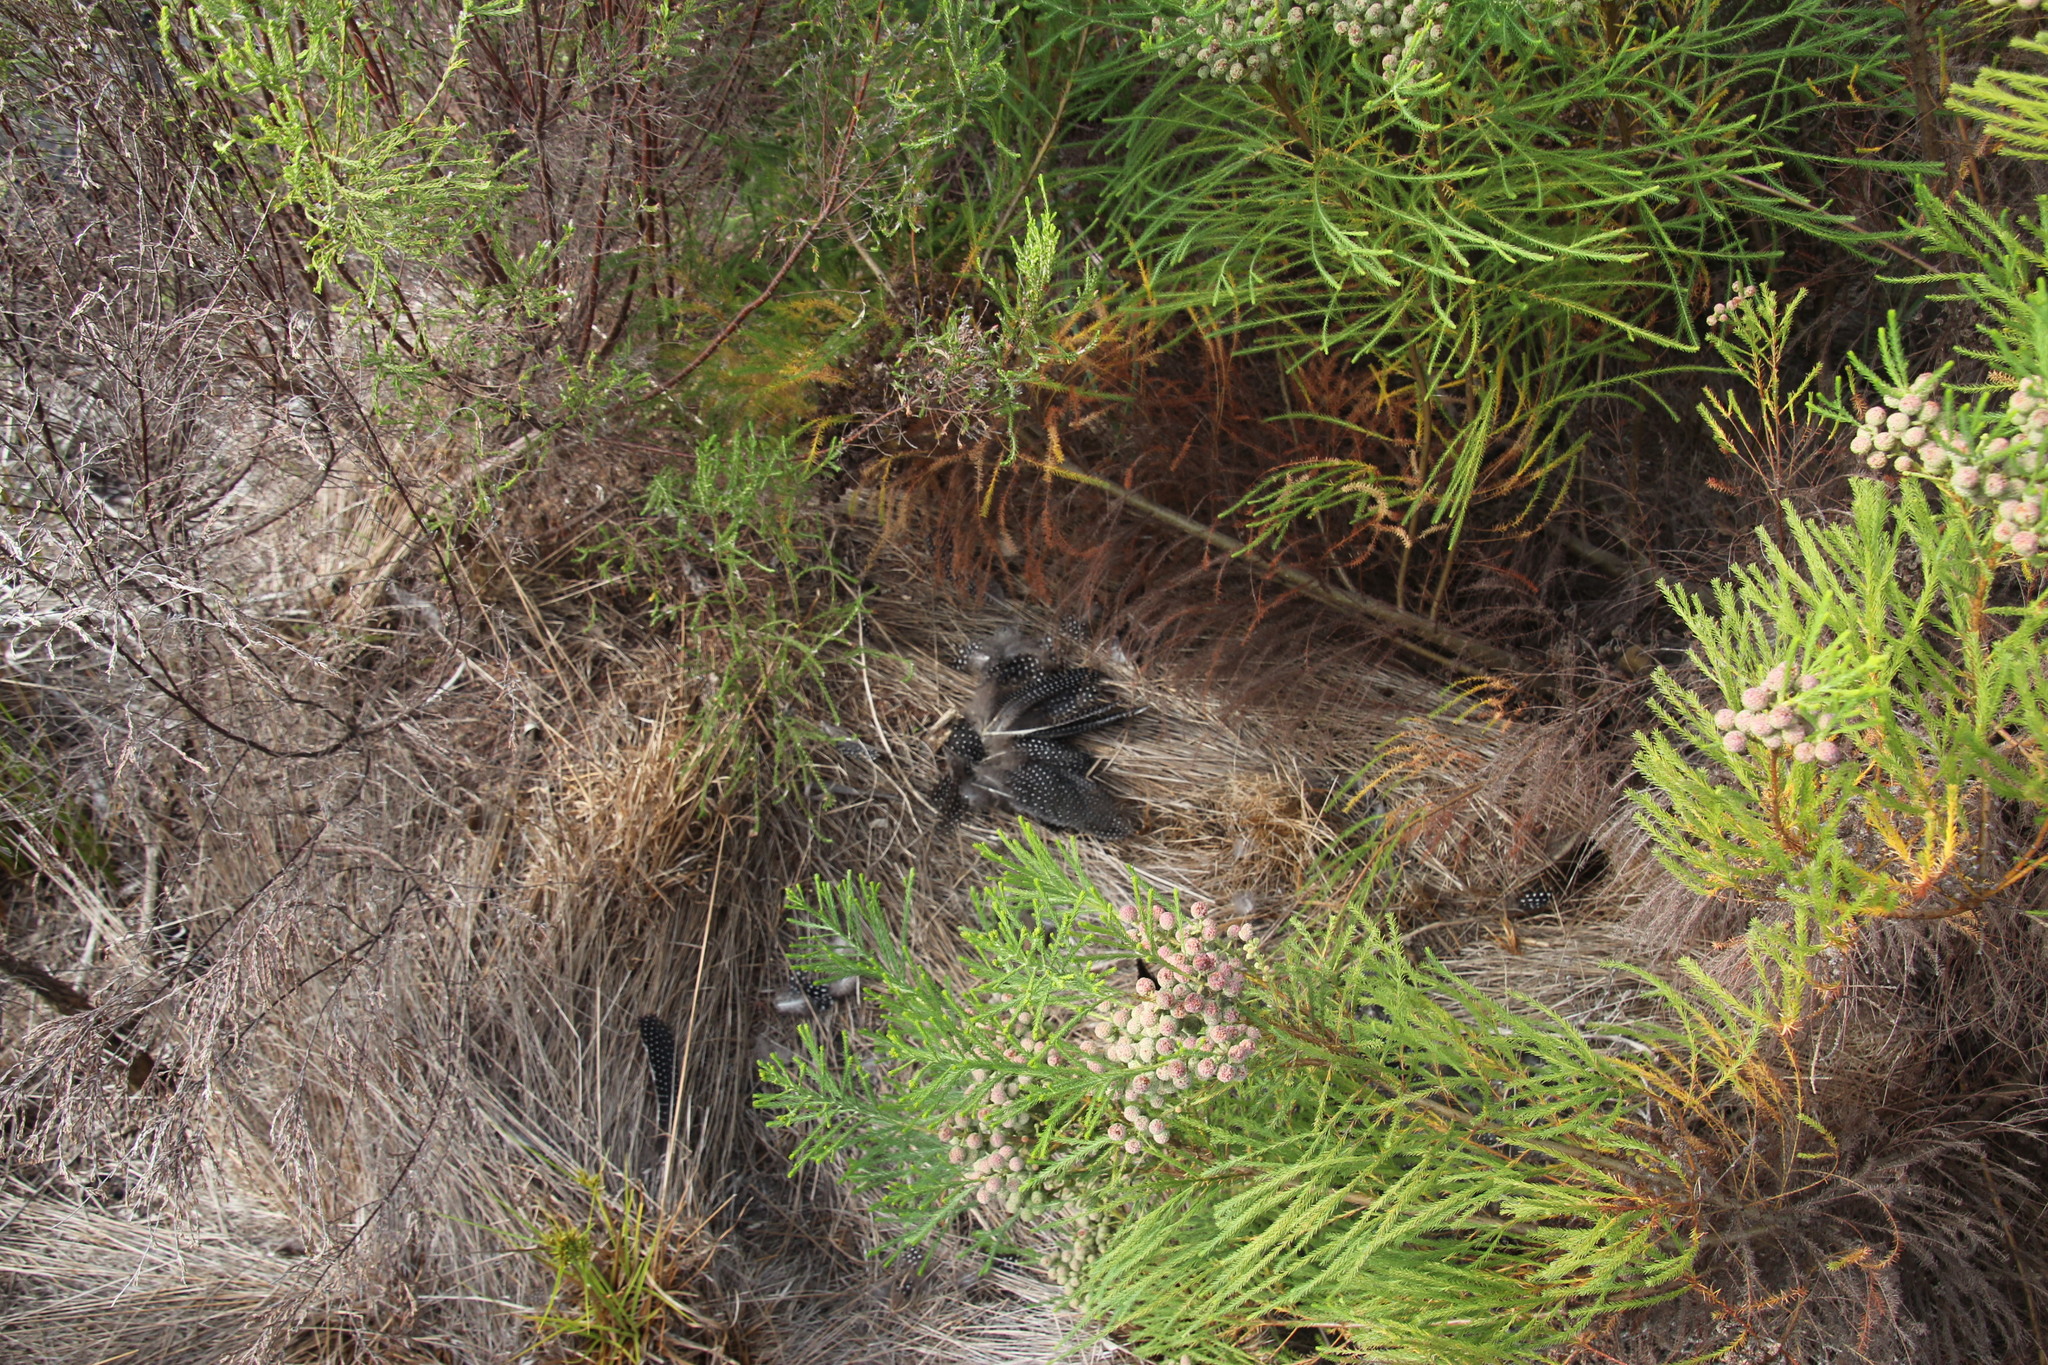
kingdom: Animalia
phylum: Chordata
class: Mammalia
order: Carnivora
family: Felidae
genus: Caracal
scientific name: Caracal caracal
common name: Caracal
